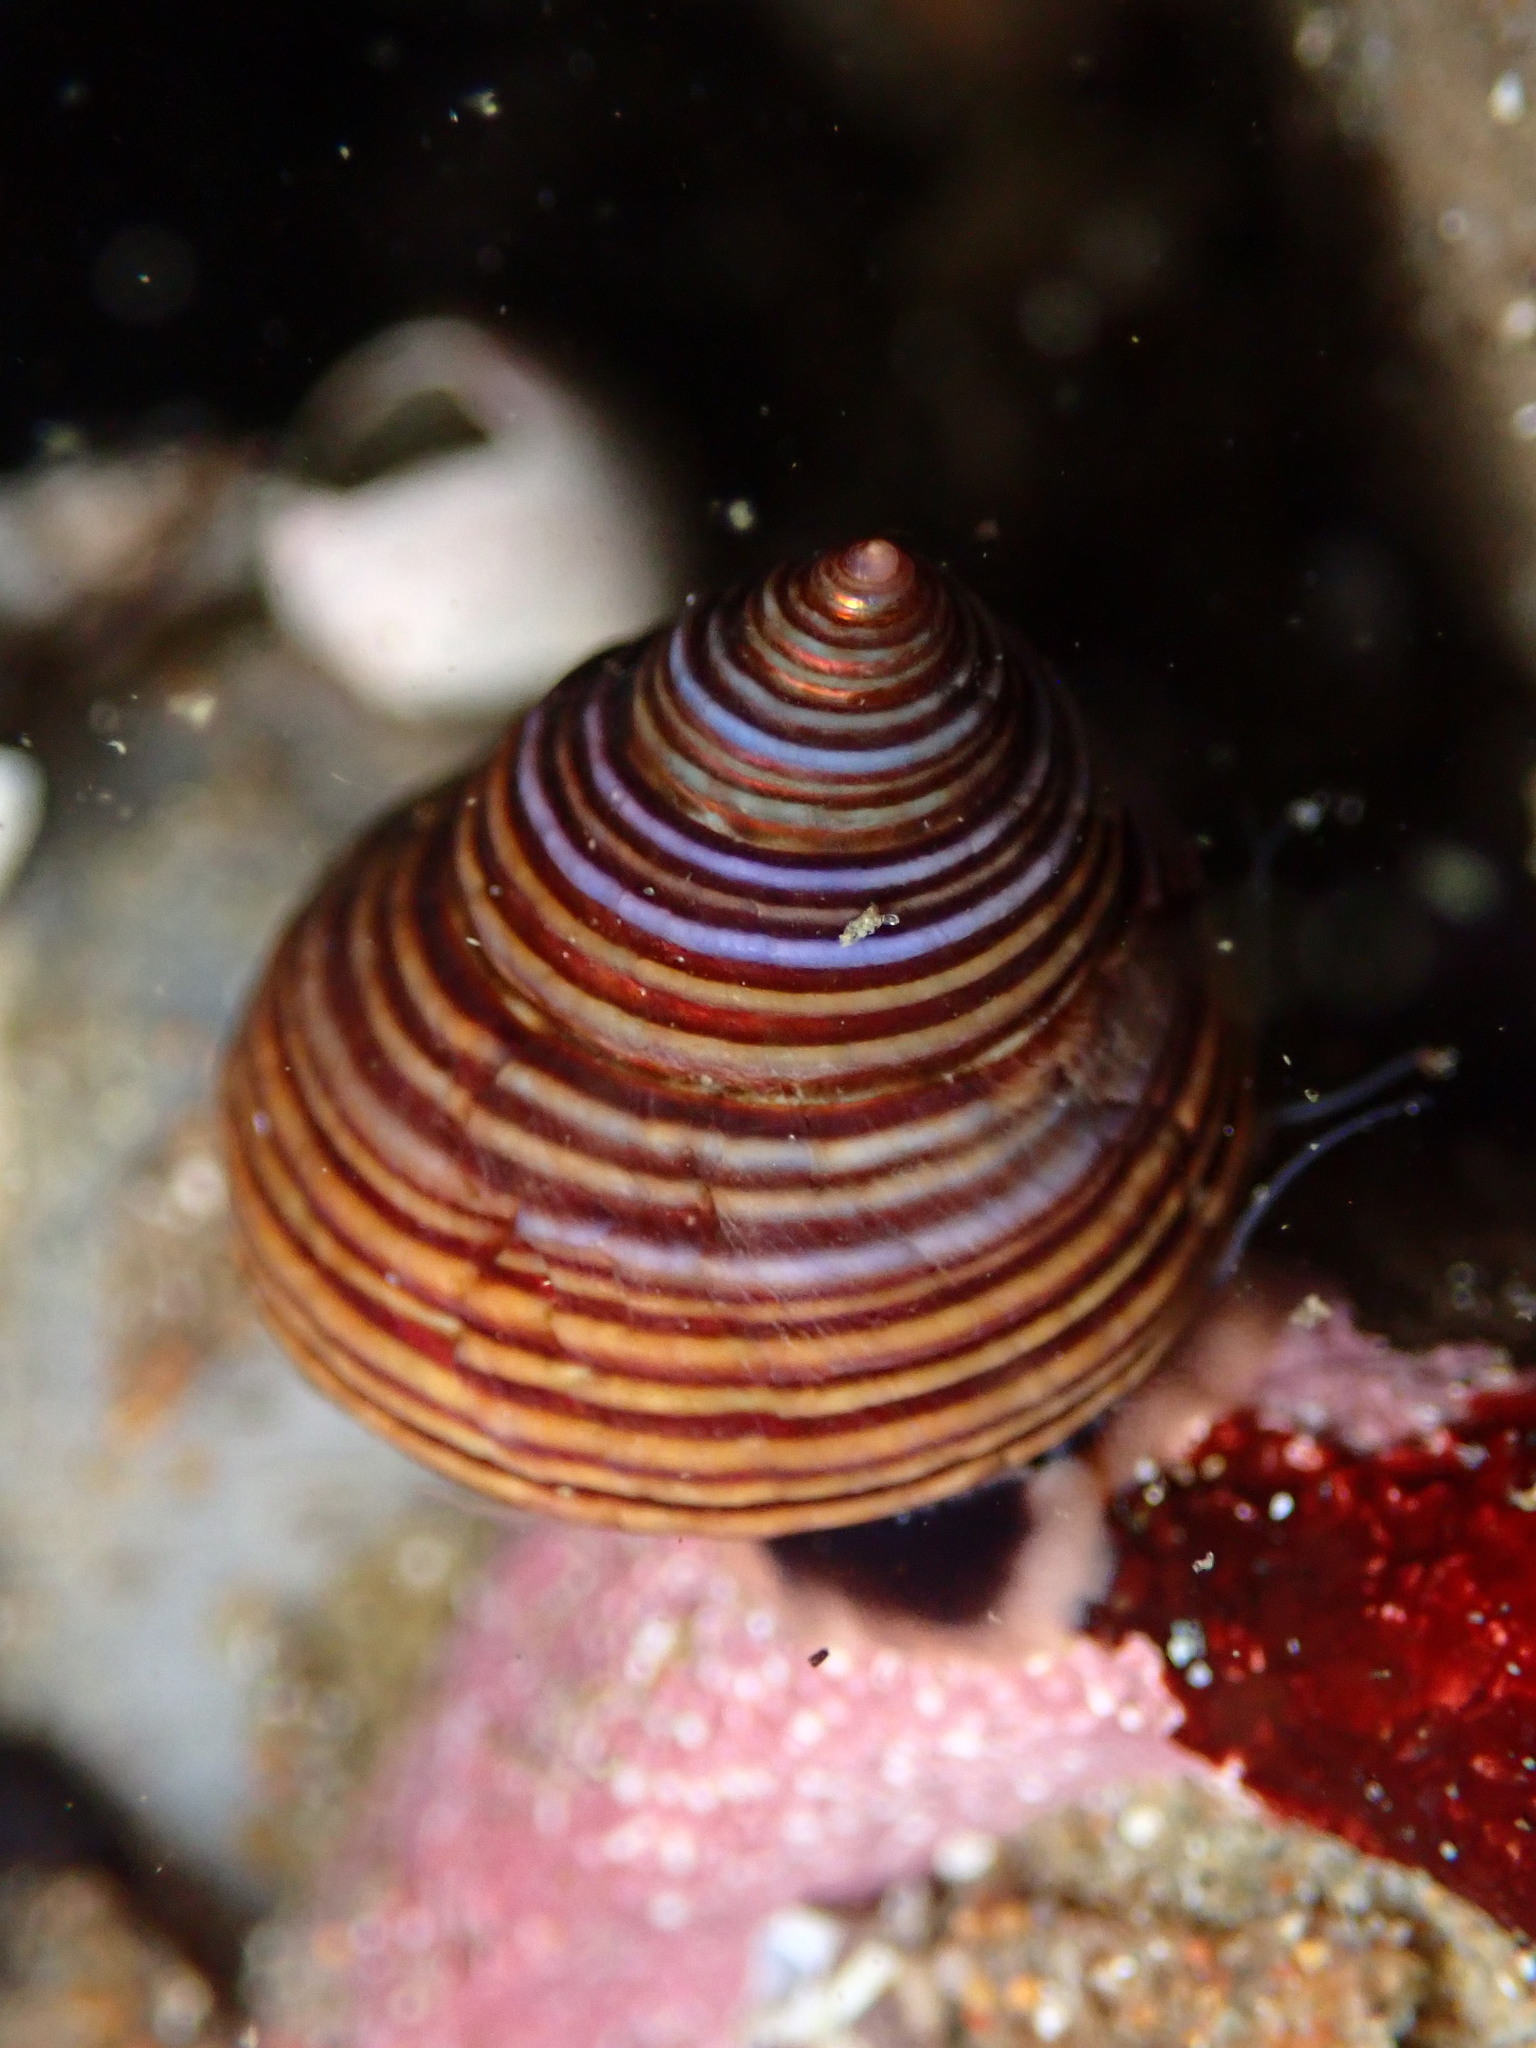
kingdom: Animalia
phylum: Mollusca
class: Gastropoda
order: Trochida
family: Calliostomatidae
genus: Calliostoma
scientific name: Calliostoma ligatum
